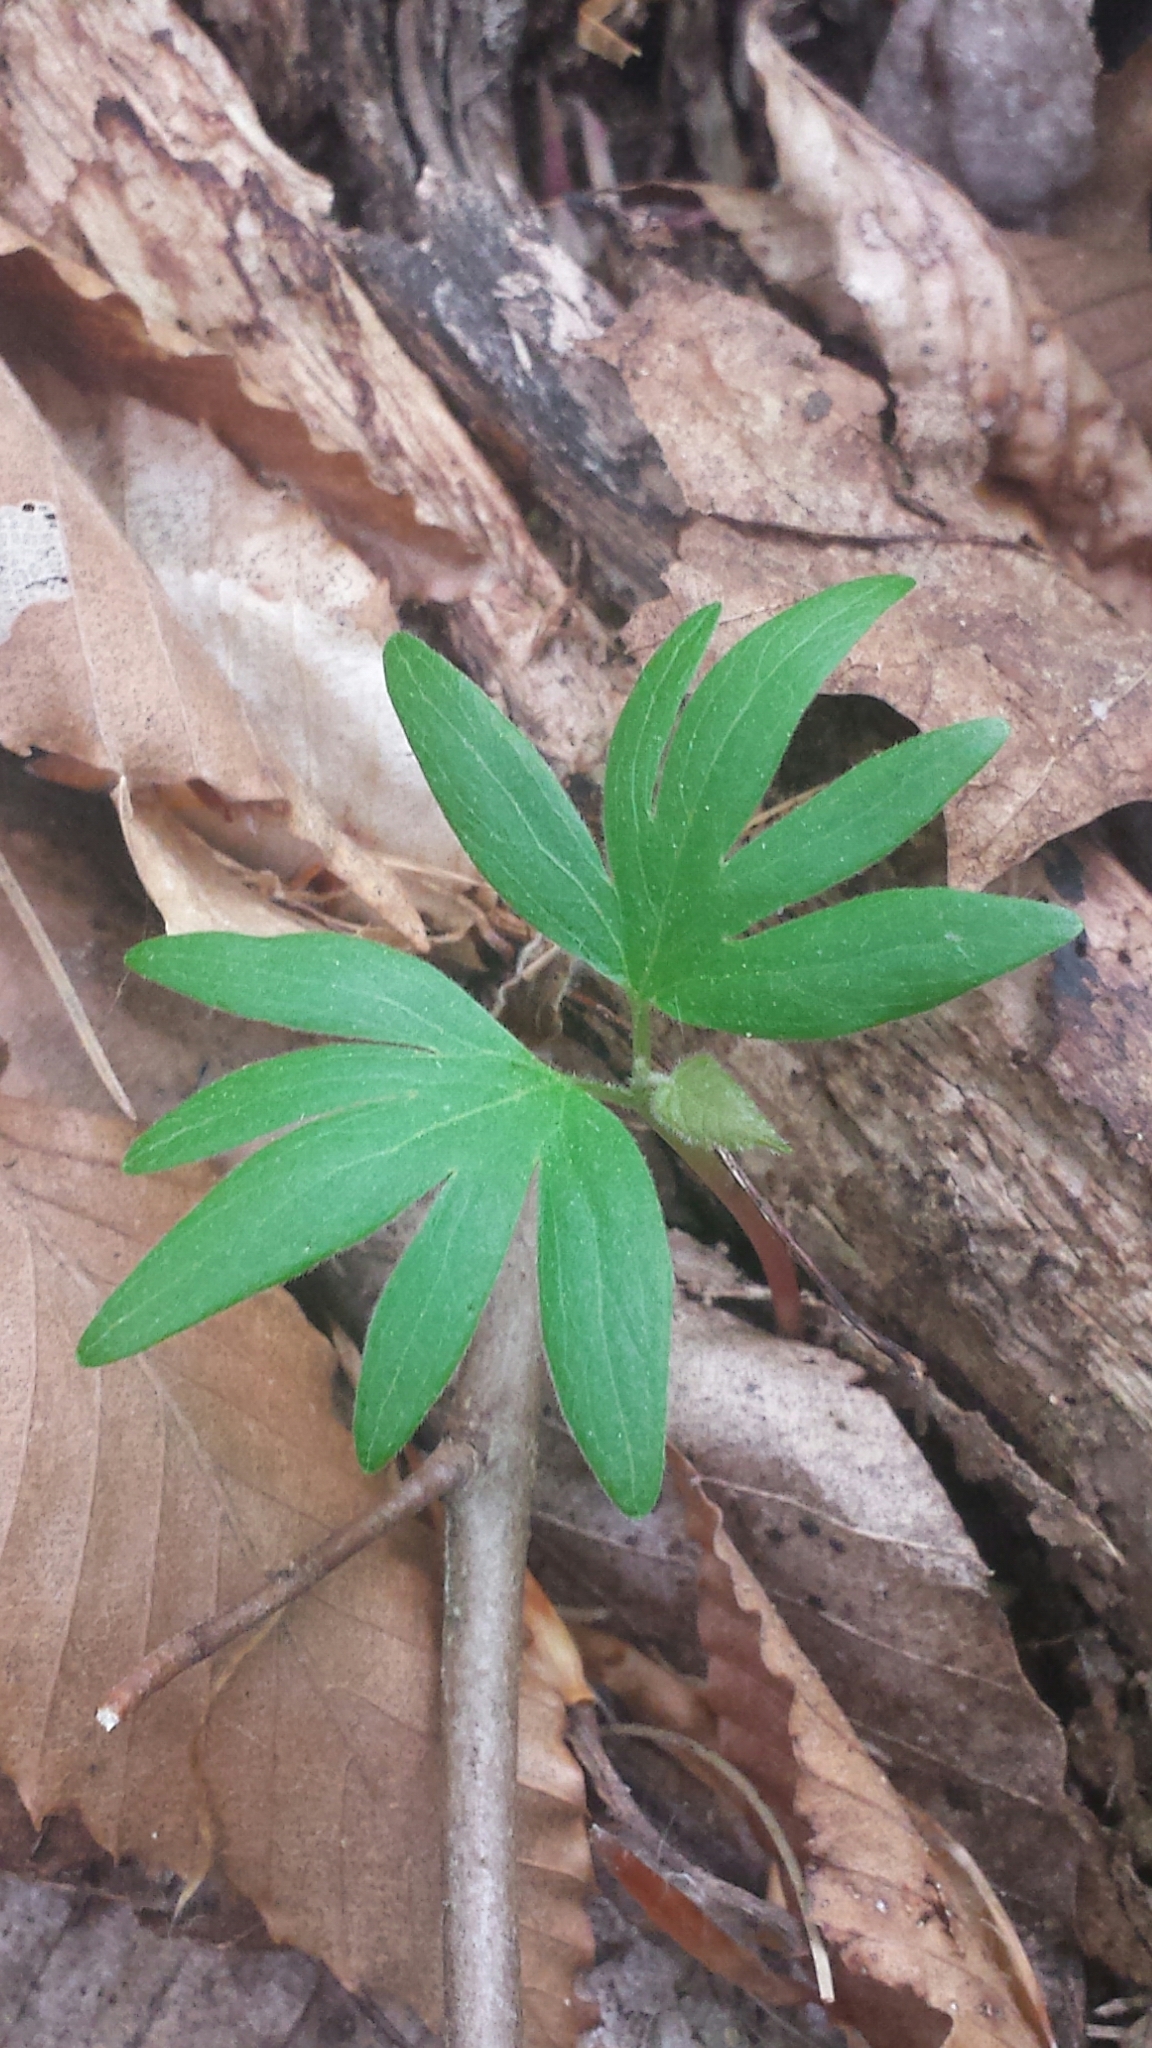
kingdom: Plantae
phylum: Tracheophyta
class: Magnoliopsida
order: Malvales
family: Malvaceae
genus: Tilia
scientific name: Tilia americana
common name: Basswood
